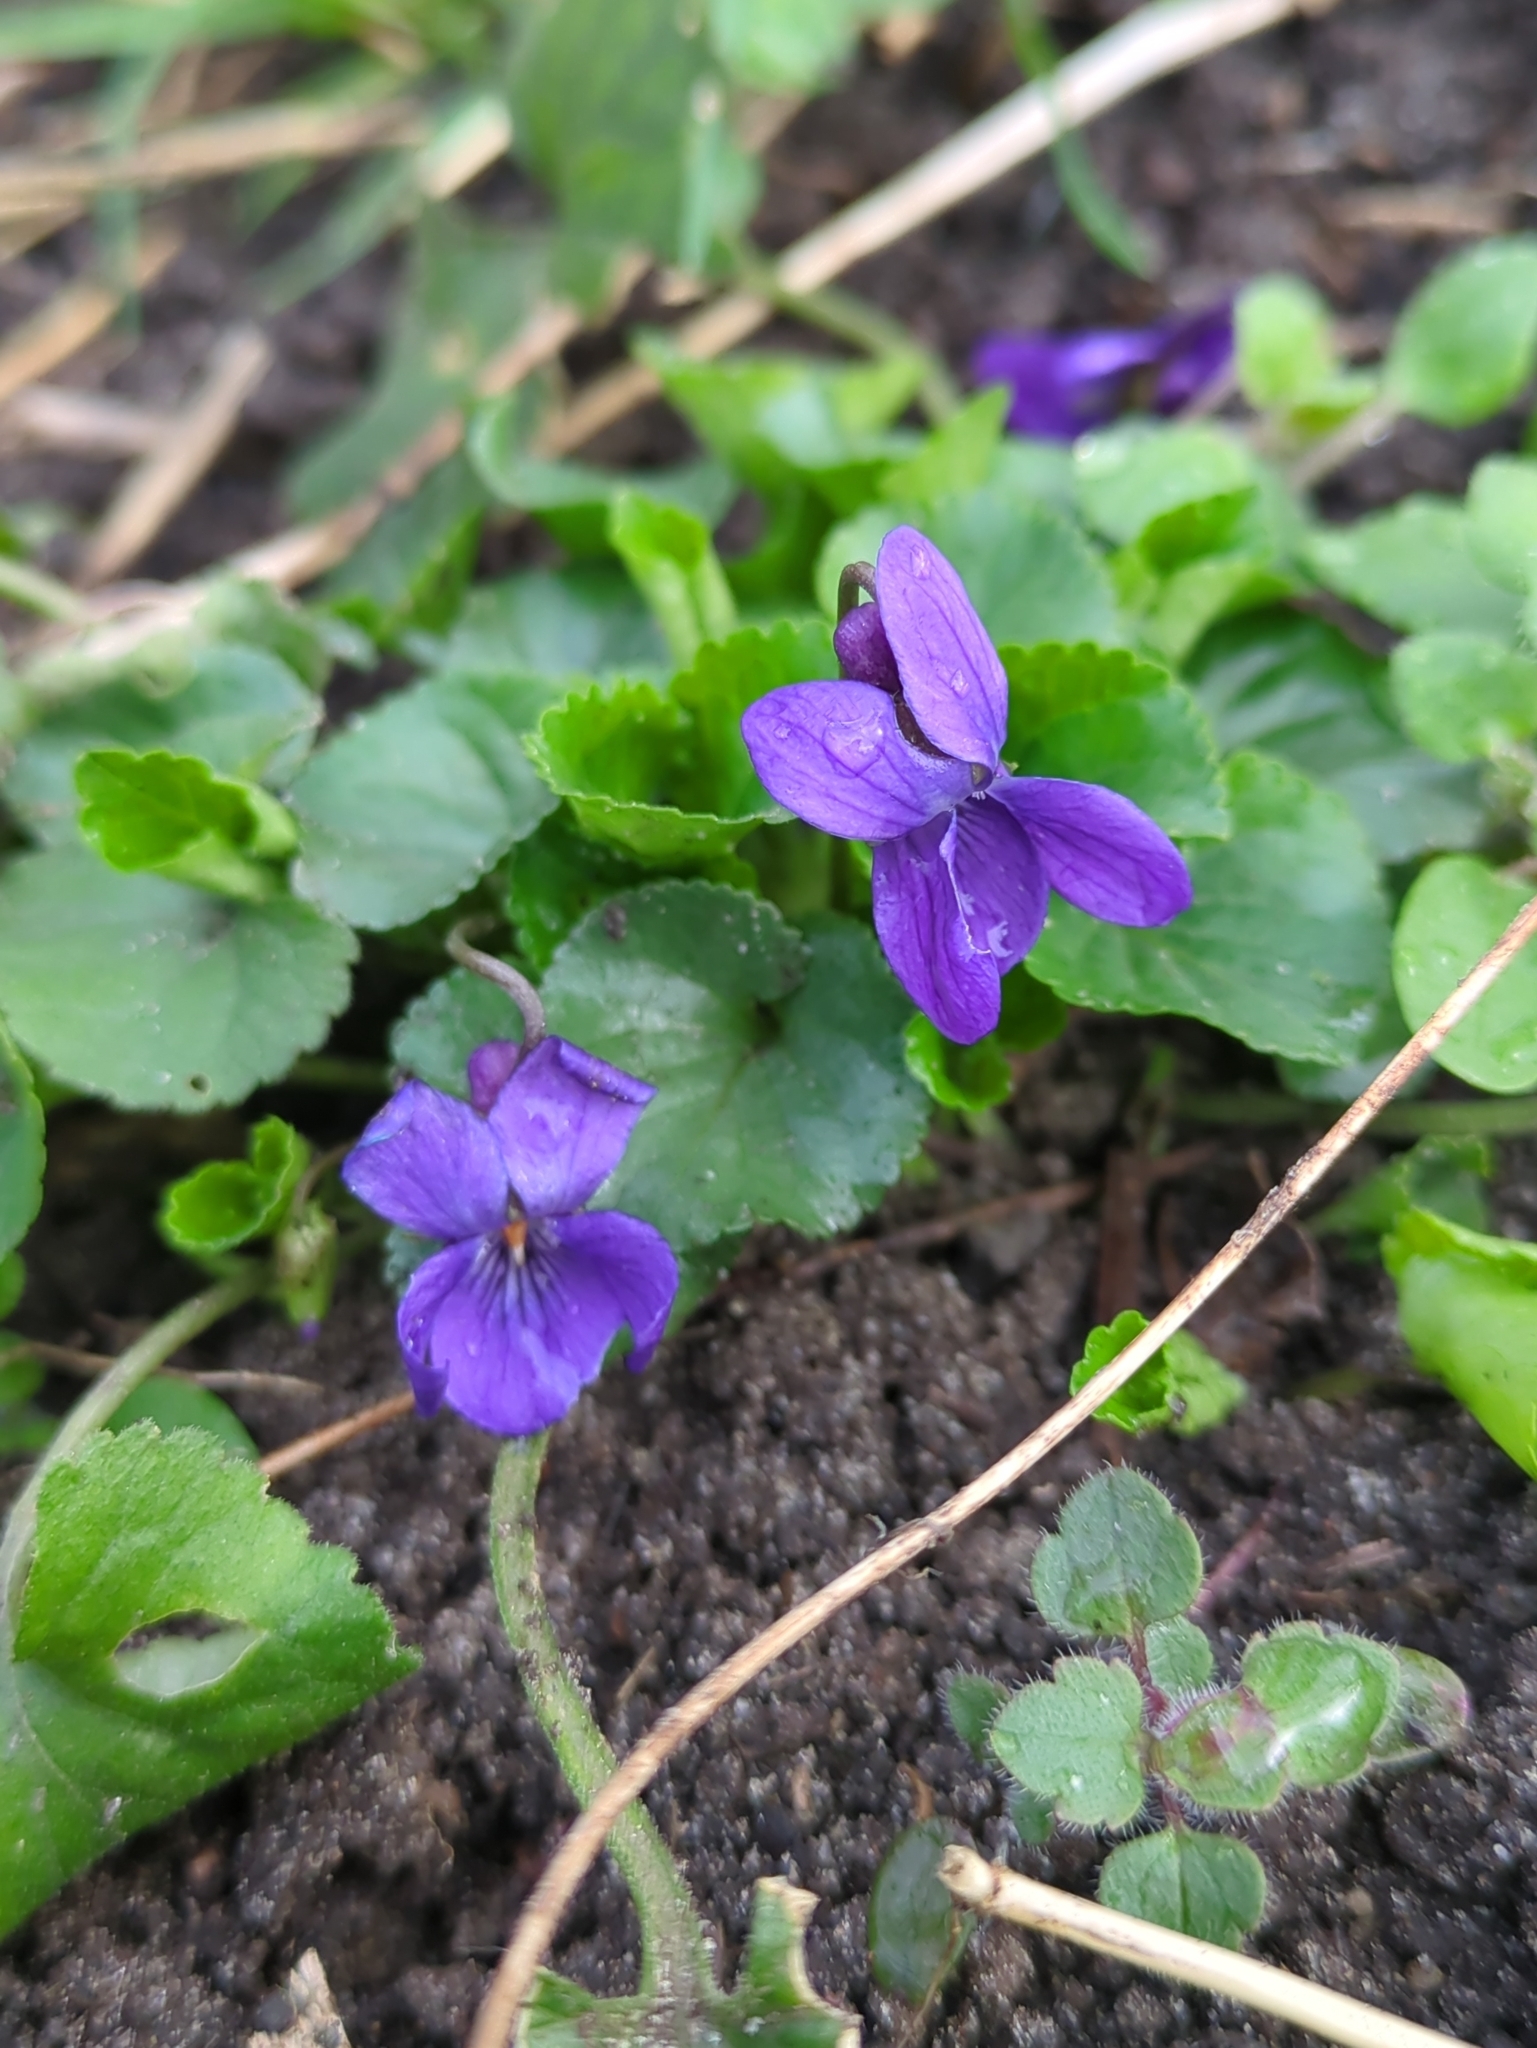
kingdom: Plantae
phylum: Tracheophyta
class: Magnoliopsida
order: Malpighiales
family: Violaceae
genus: Viola
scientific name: Viola odorata
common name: Sweet violet
